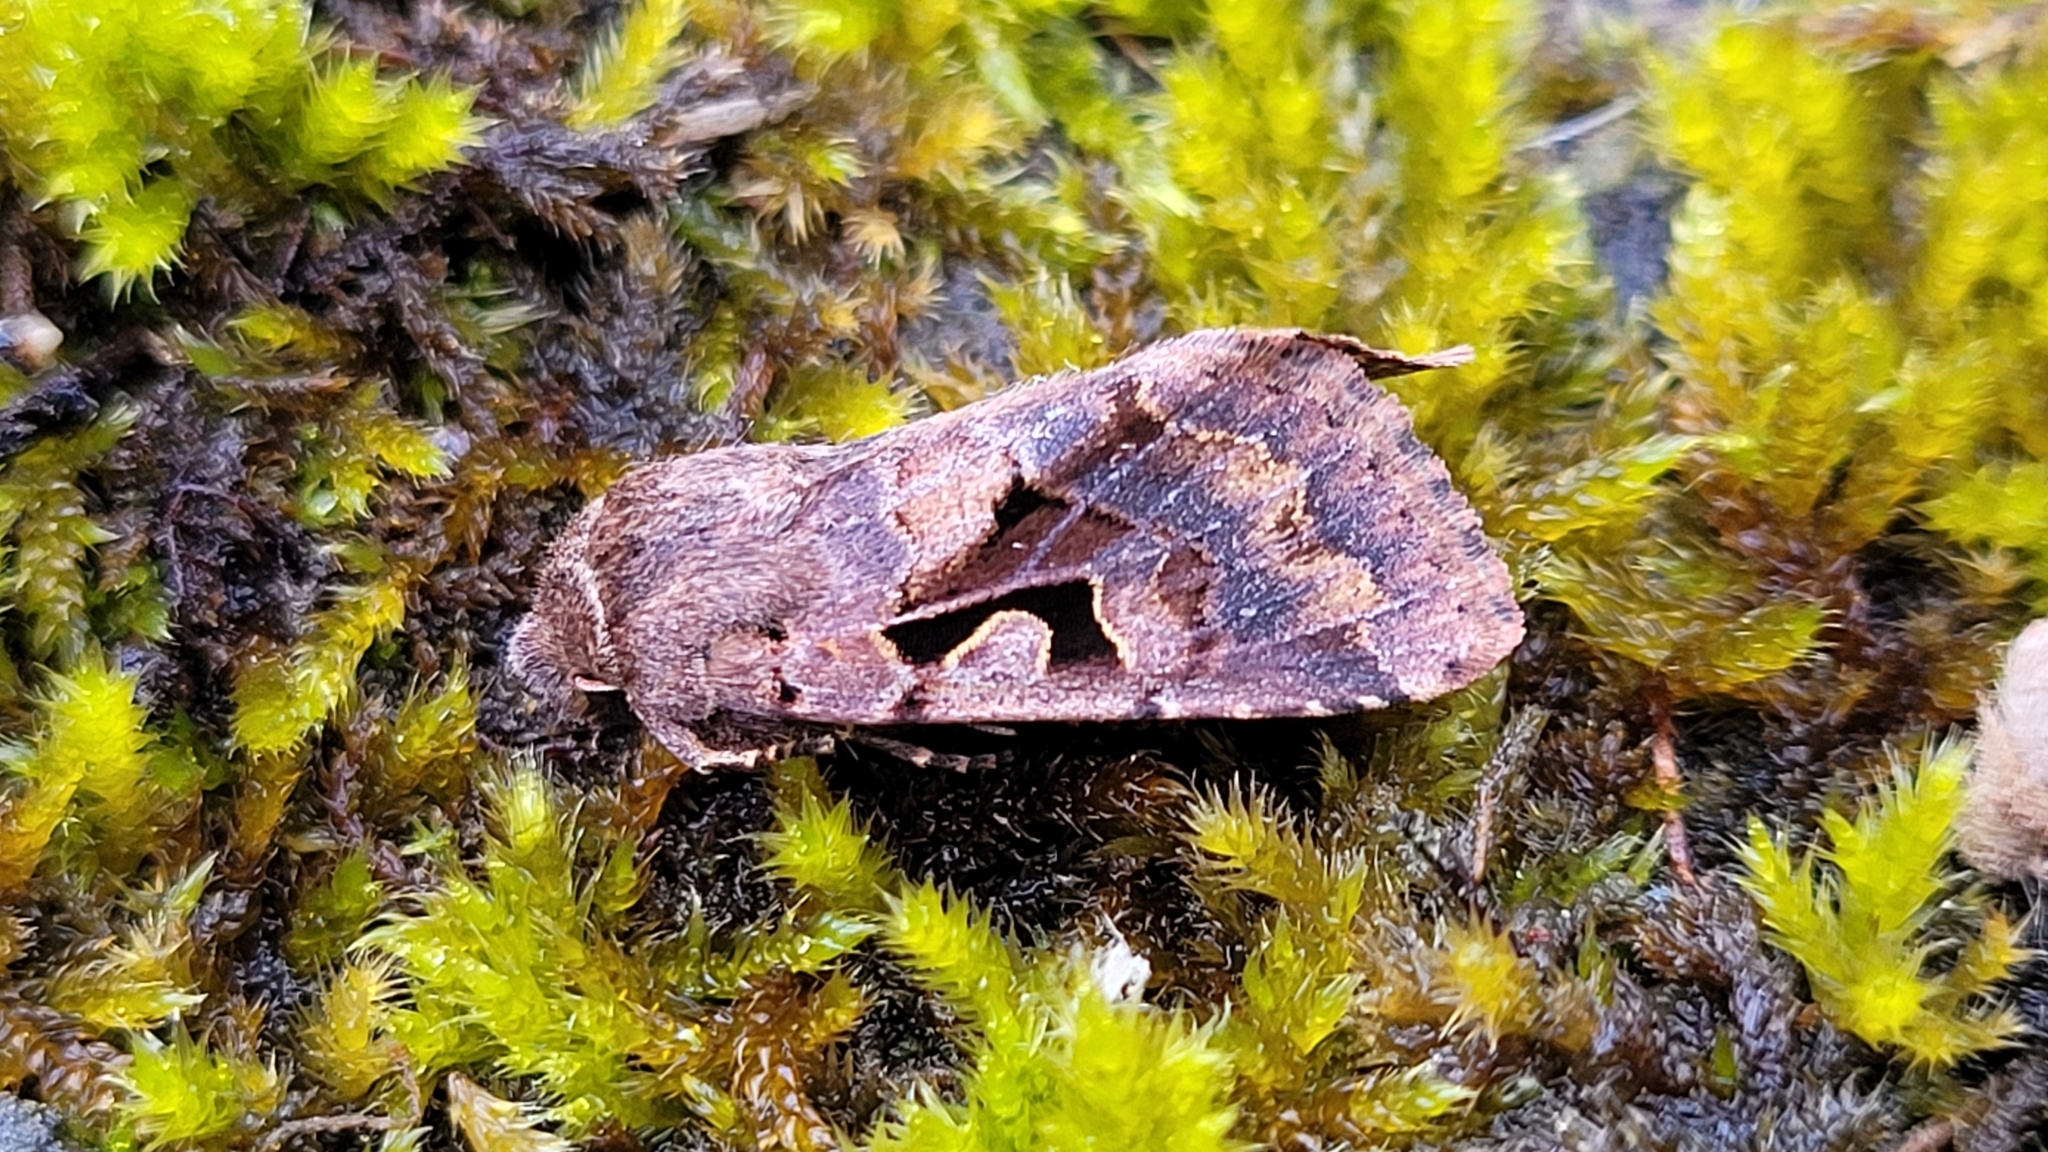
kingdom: Animalia
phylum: Arthropoda
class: Insecta
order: Lepidoptera
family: Noctuidae
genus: Orthosia
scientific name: Orthosia gothica
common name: Hebrew character
